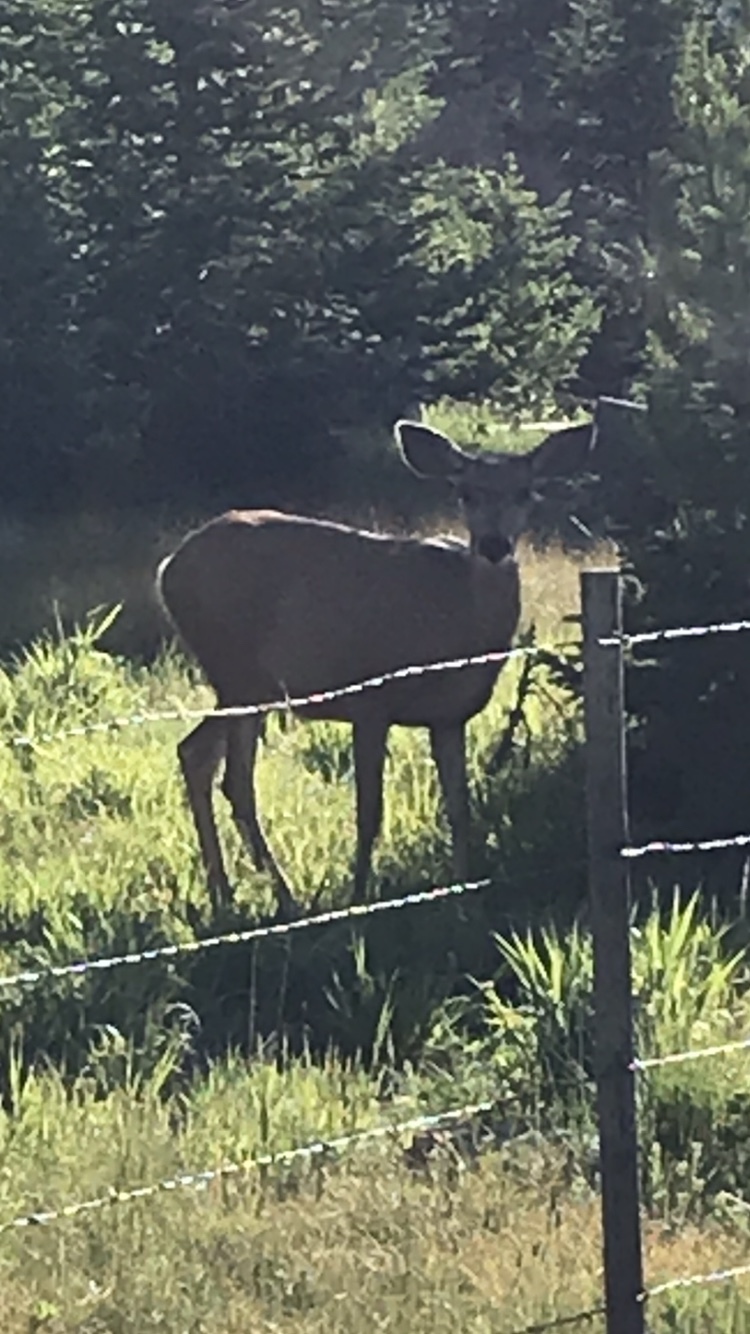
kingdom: Animalia
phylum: Chordata
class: Mammalia
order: Artiodactyla
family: Cervidae
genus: Odocoileus
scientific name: Odocoileus hemionus
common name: Mule deer
